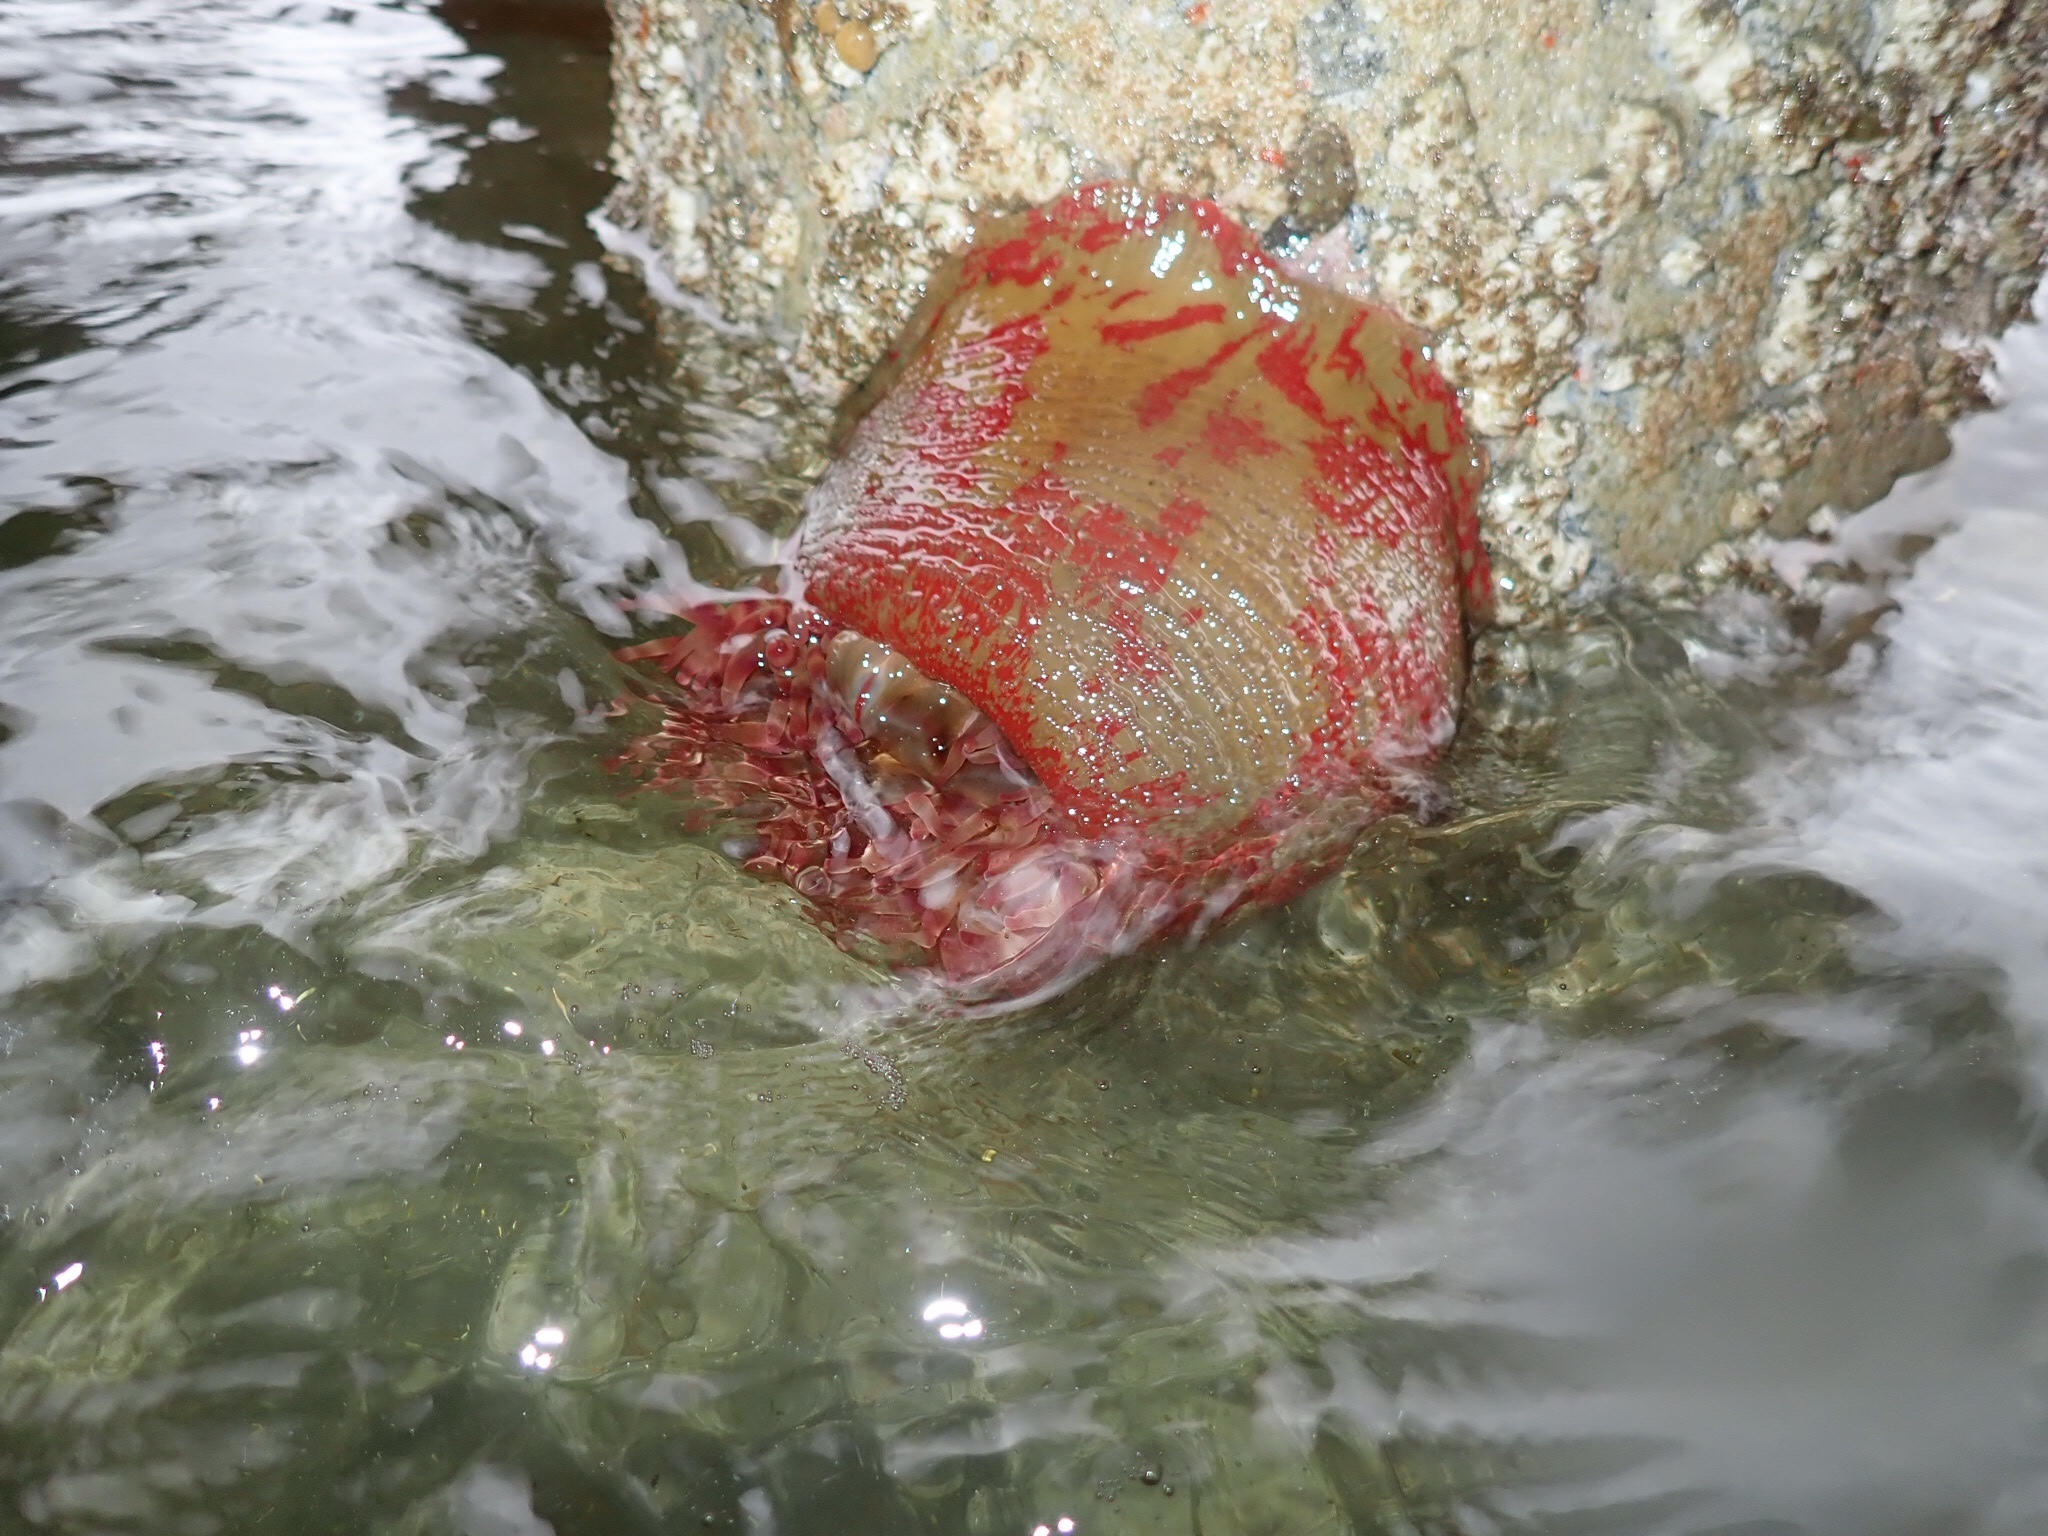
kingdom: Animalia
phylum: Cnidaria
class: Anthozoa
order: Actiniaria
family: Actiniidae
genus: Urticina
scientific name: Urticina grebelnyi
